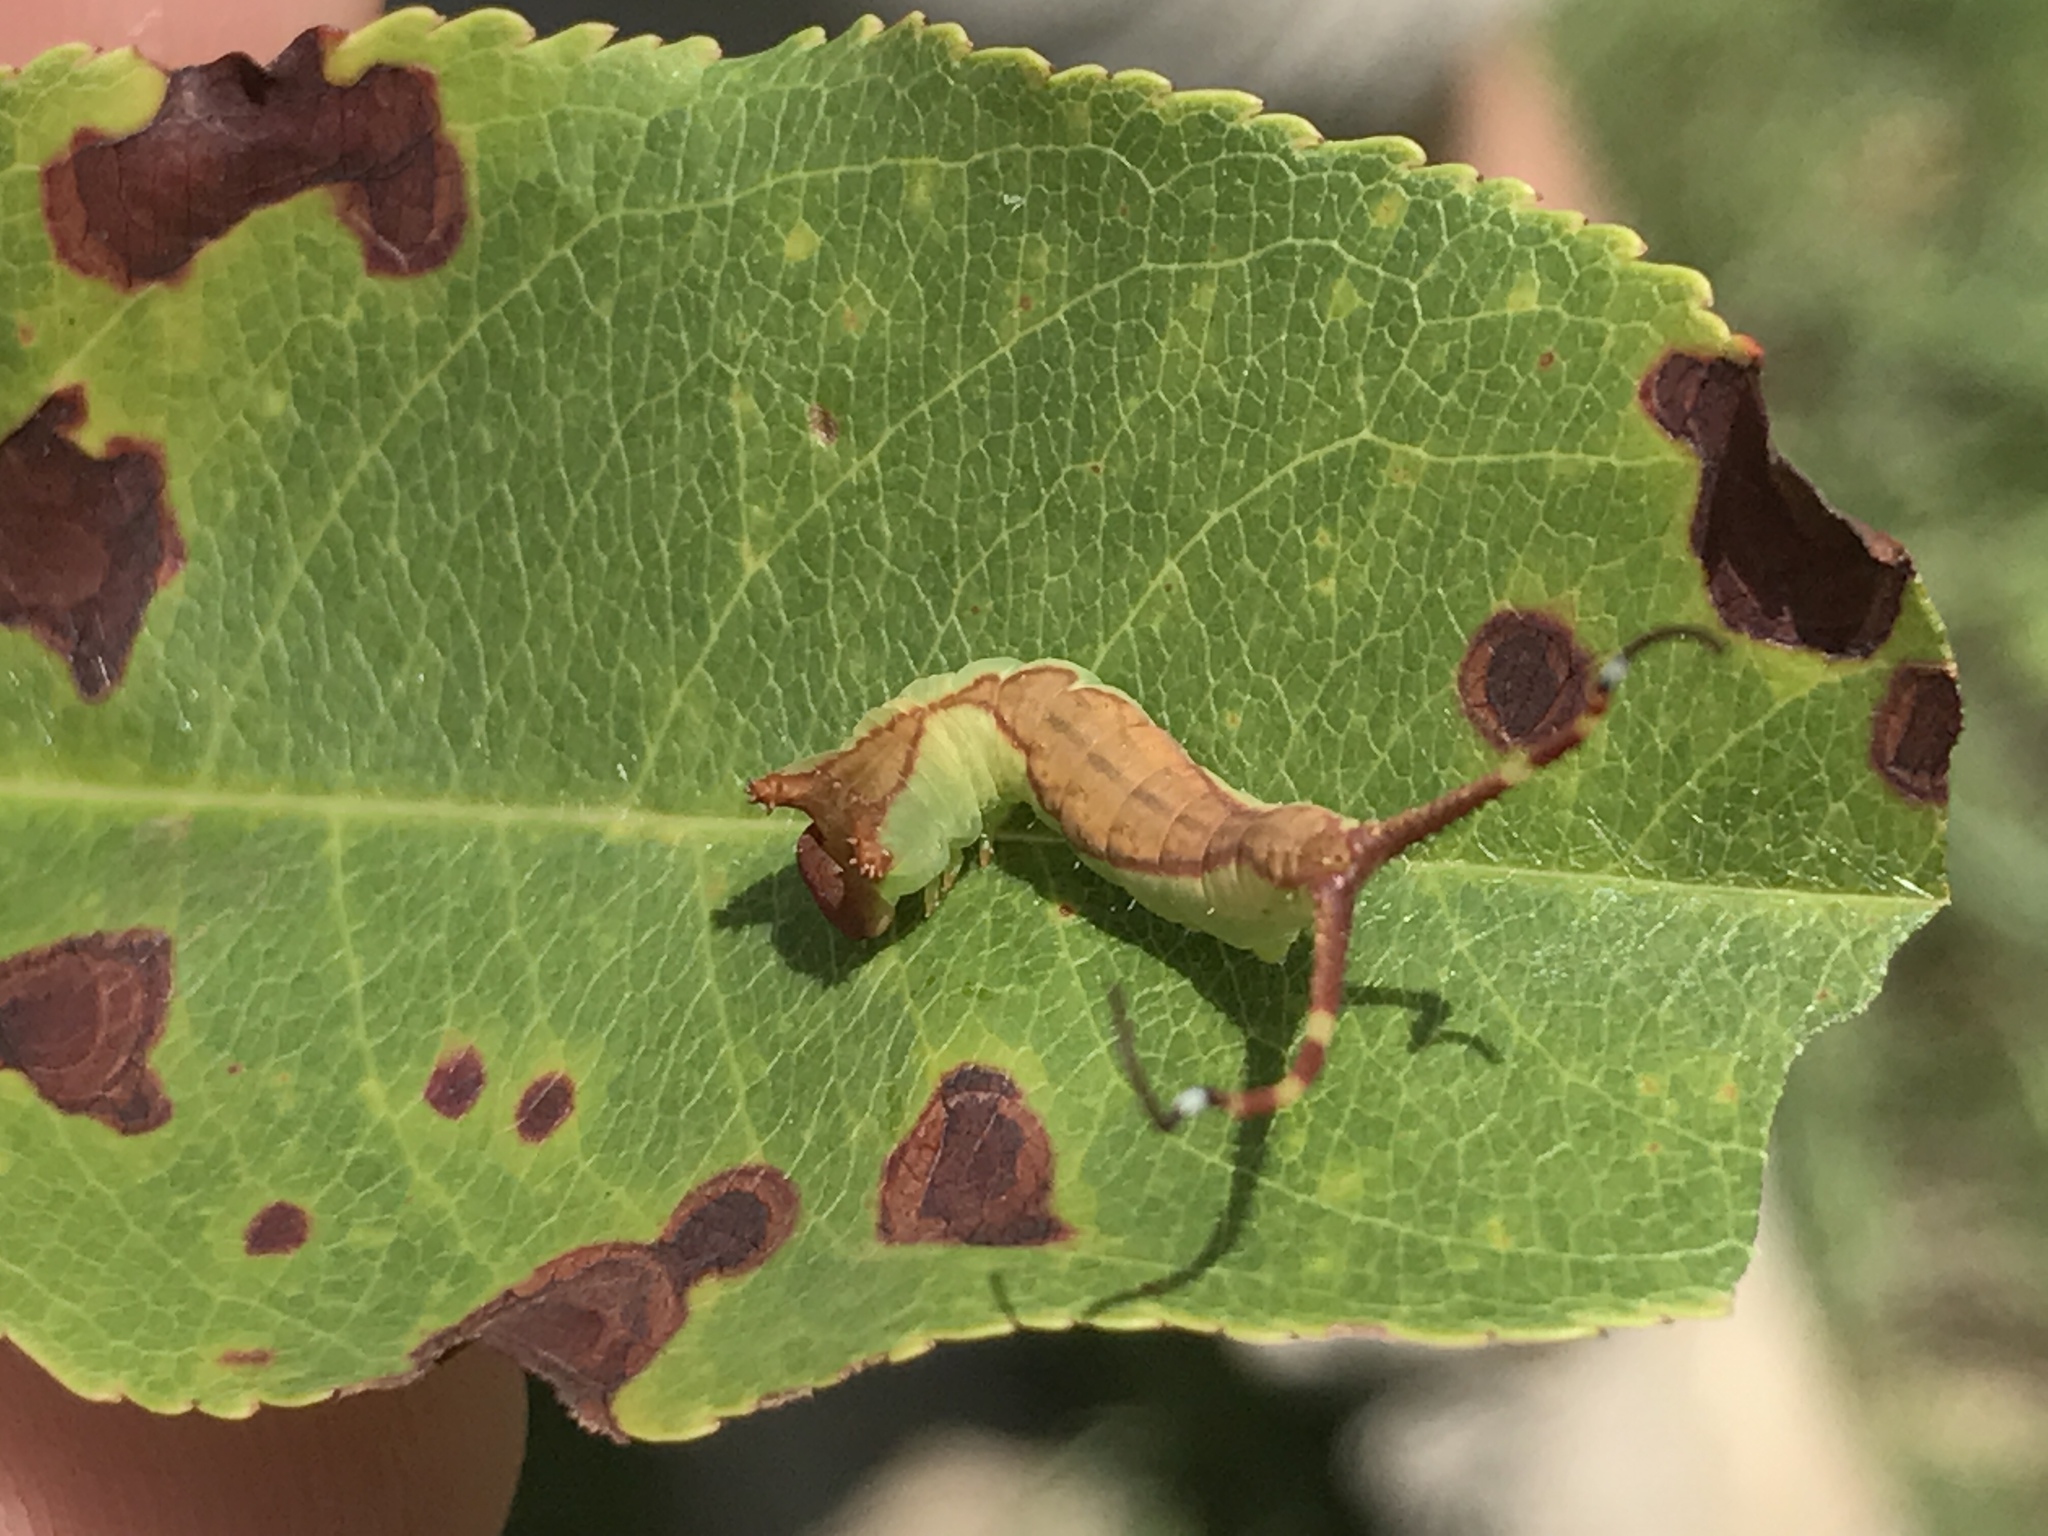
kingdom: Animalia
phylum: Arthropoda
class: Insecta
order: Lepidoptera
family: Notodontidae
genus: Furcula
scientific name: Furcula borealis
